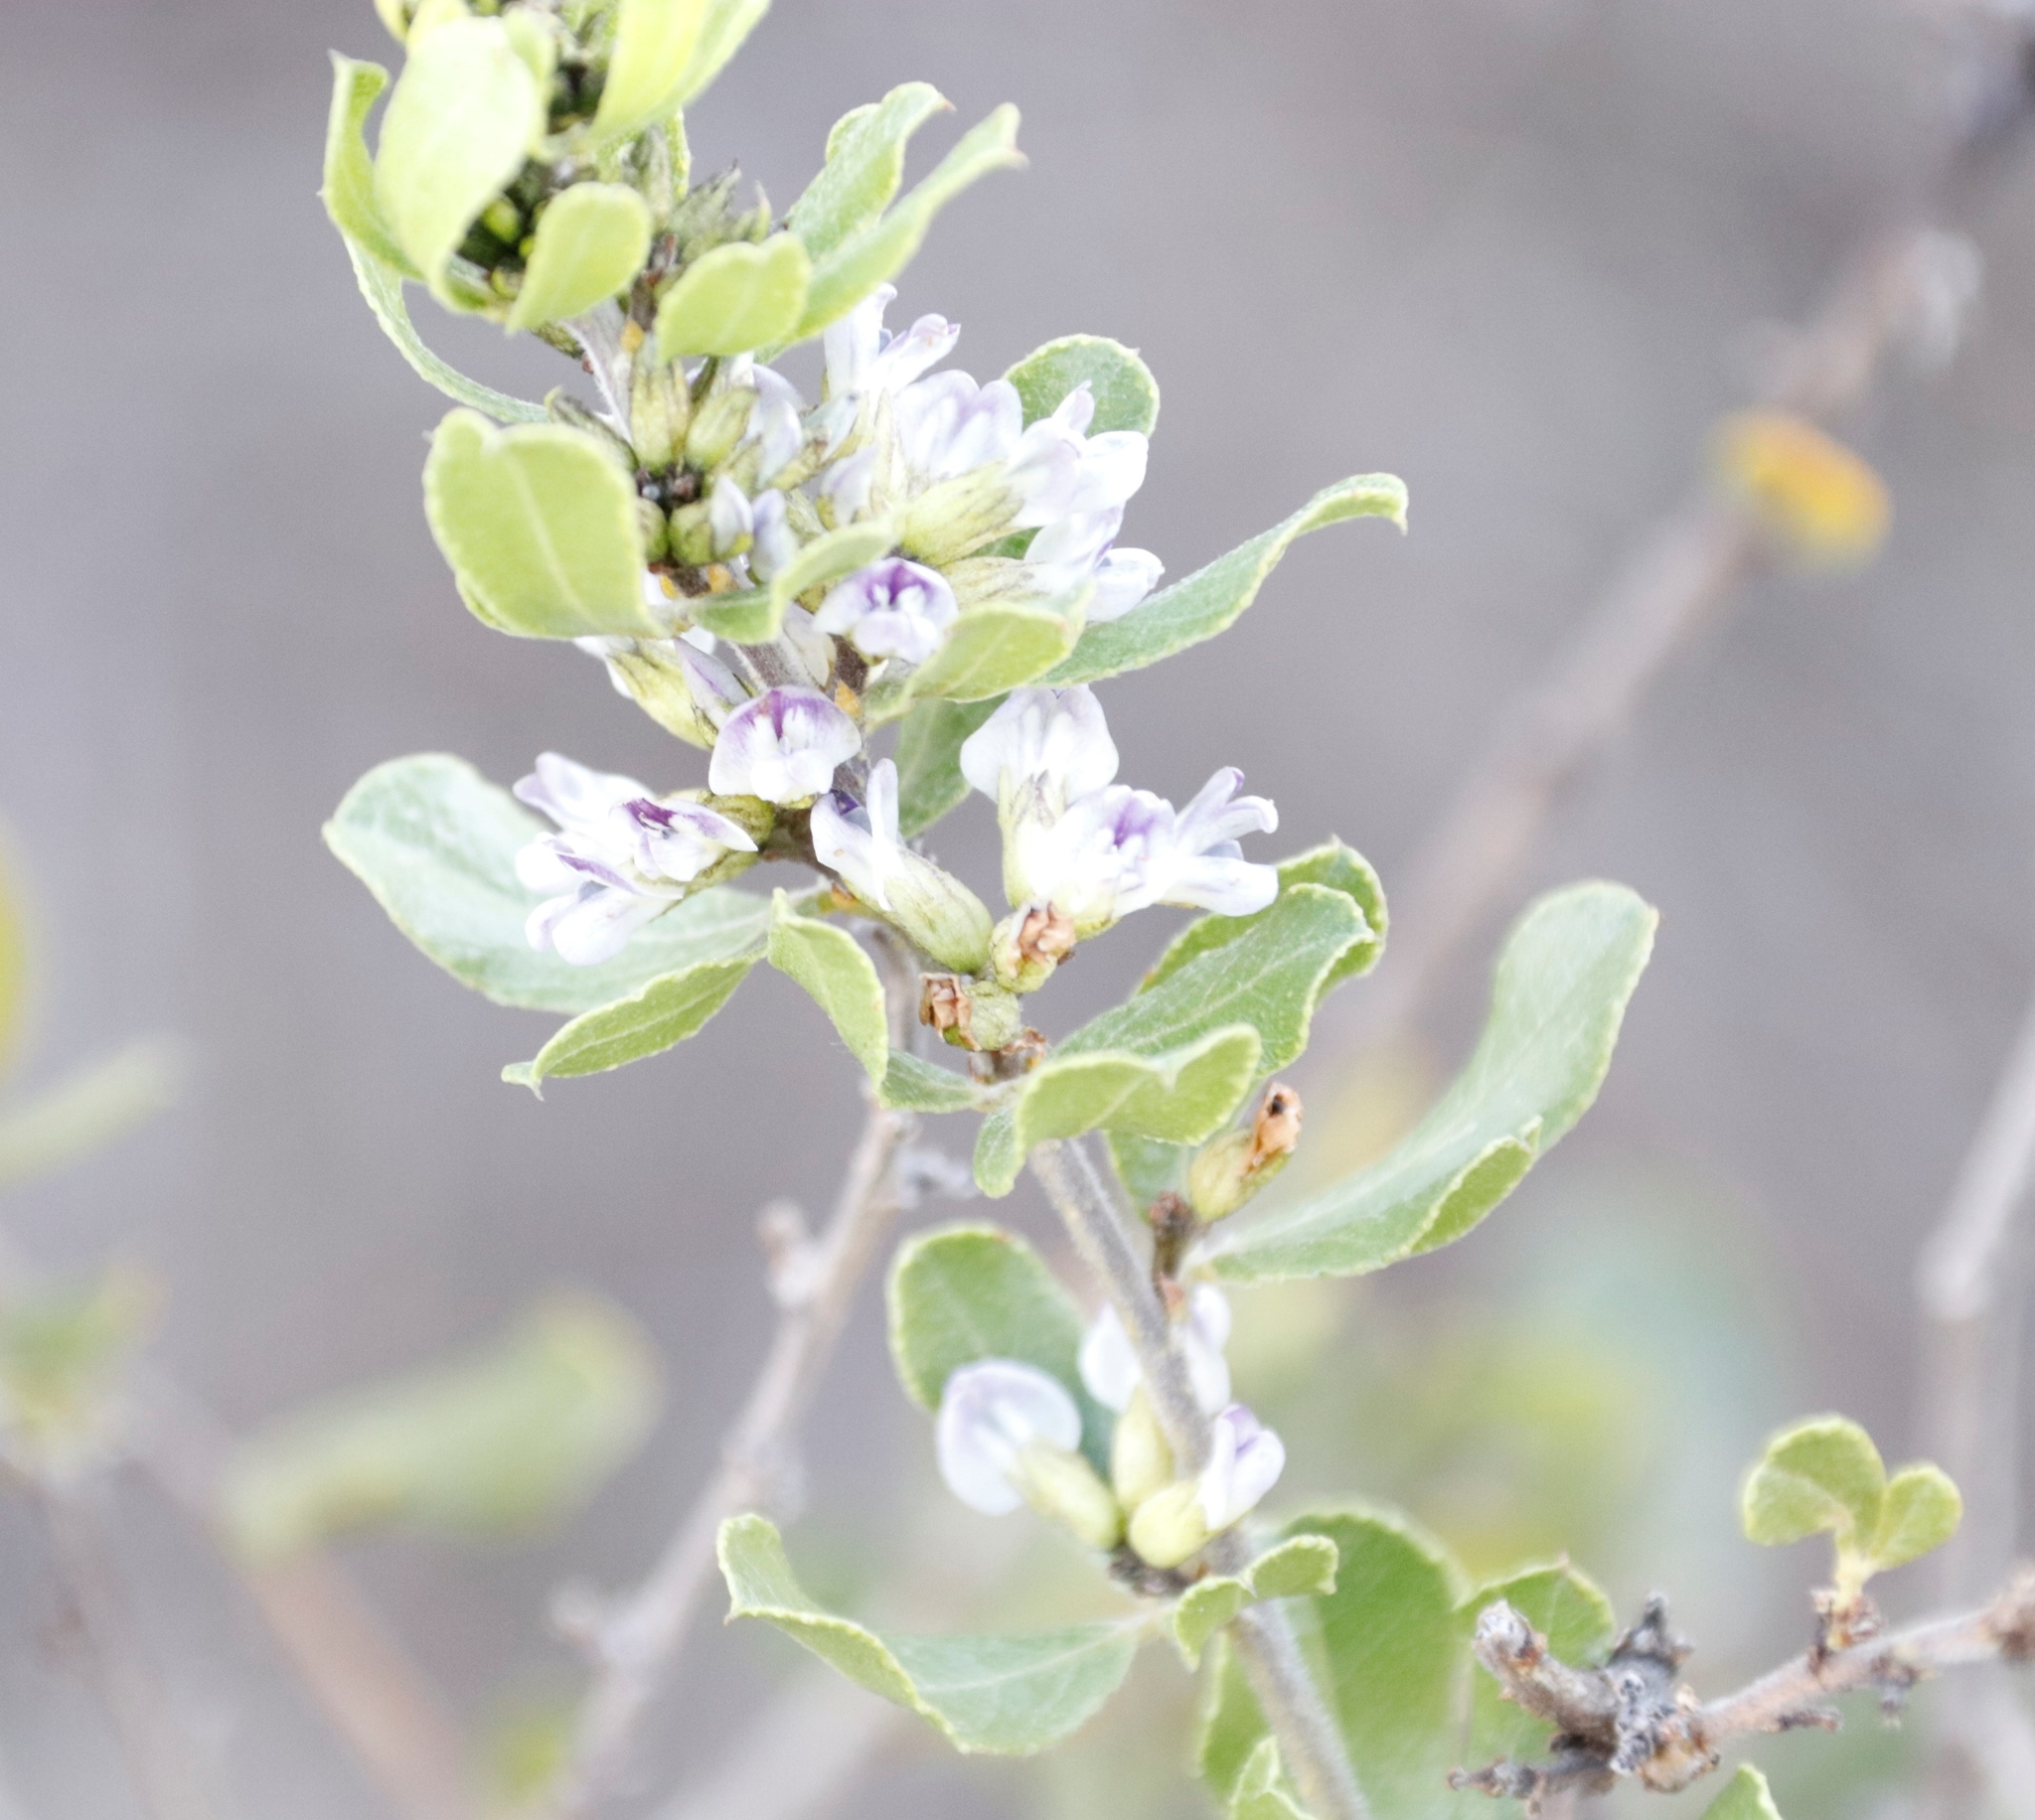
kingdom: Plantae
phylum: Tracheophyta
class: Magnoliopsida
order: Fabales
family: Fabaceae
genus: Psoralea
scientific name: Psoralea polysticta
